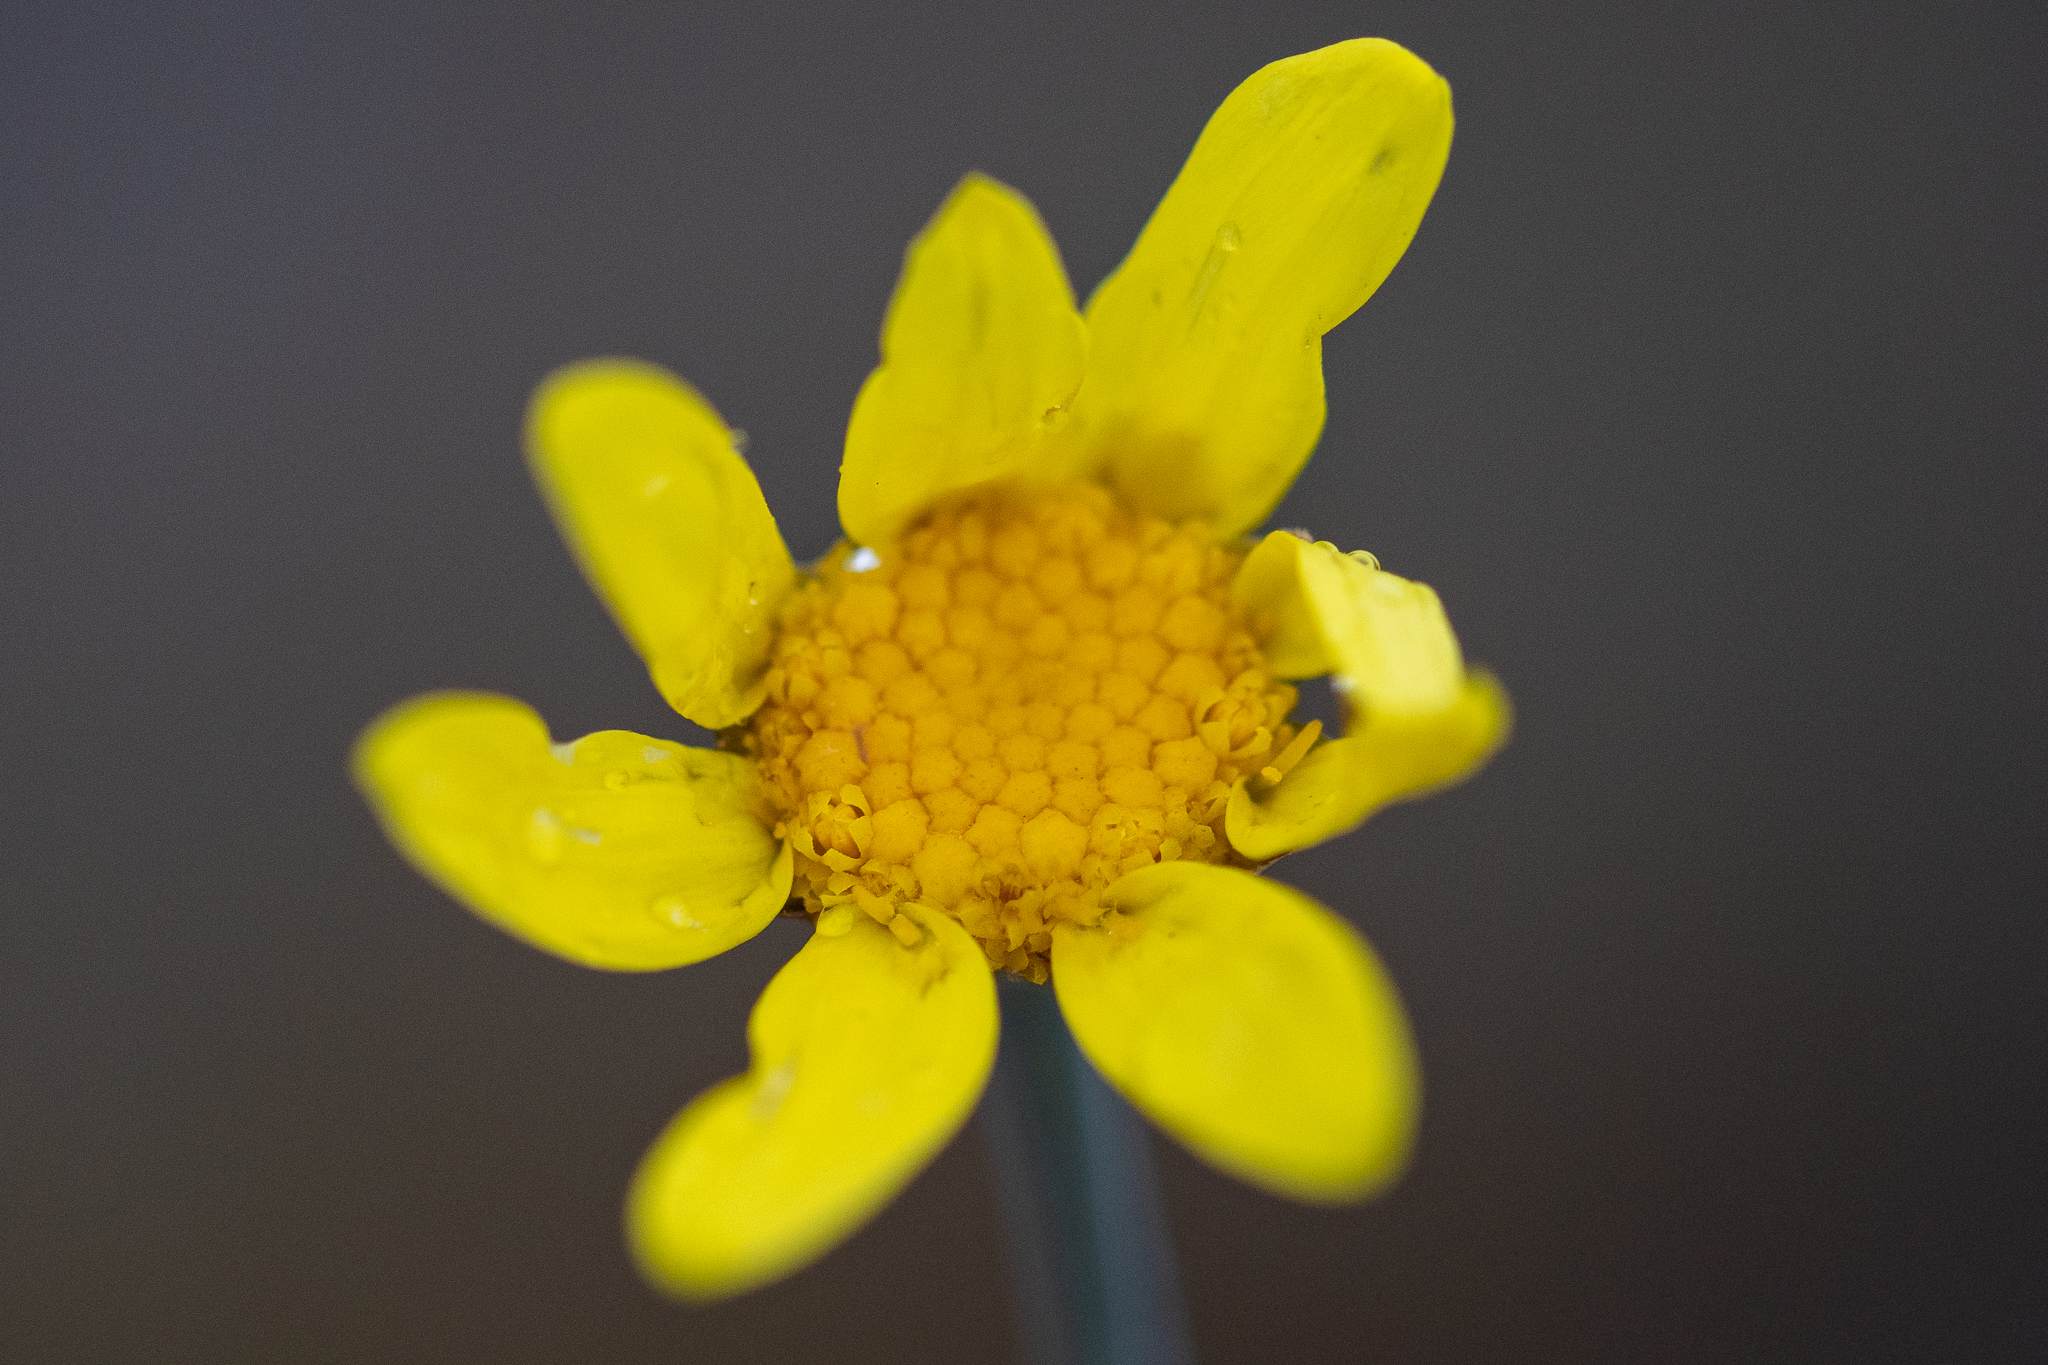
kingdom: Plantae
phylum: Tracheophyta
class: Magnoliopsida
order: Asterales
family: Asteraceae
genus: Othonna
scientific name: Othonna quinquedentata
